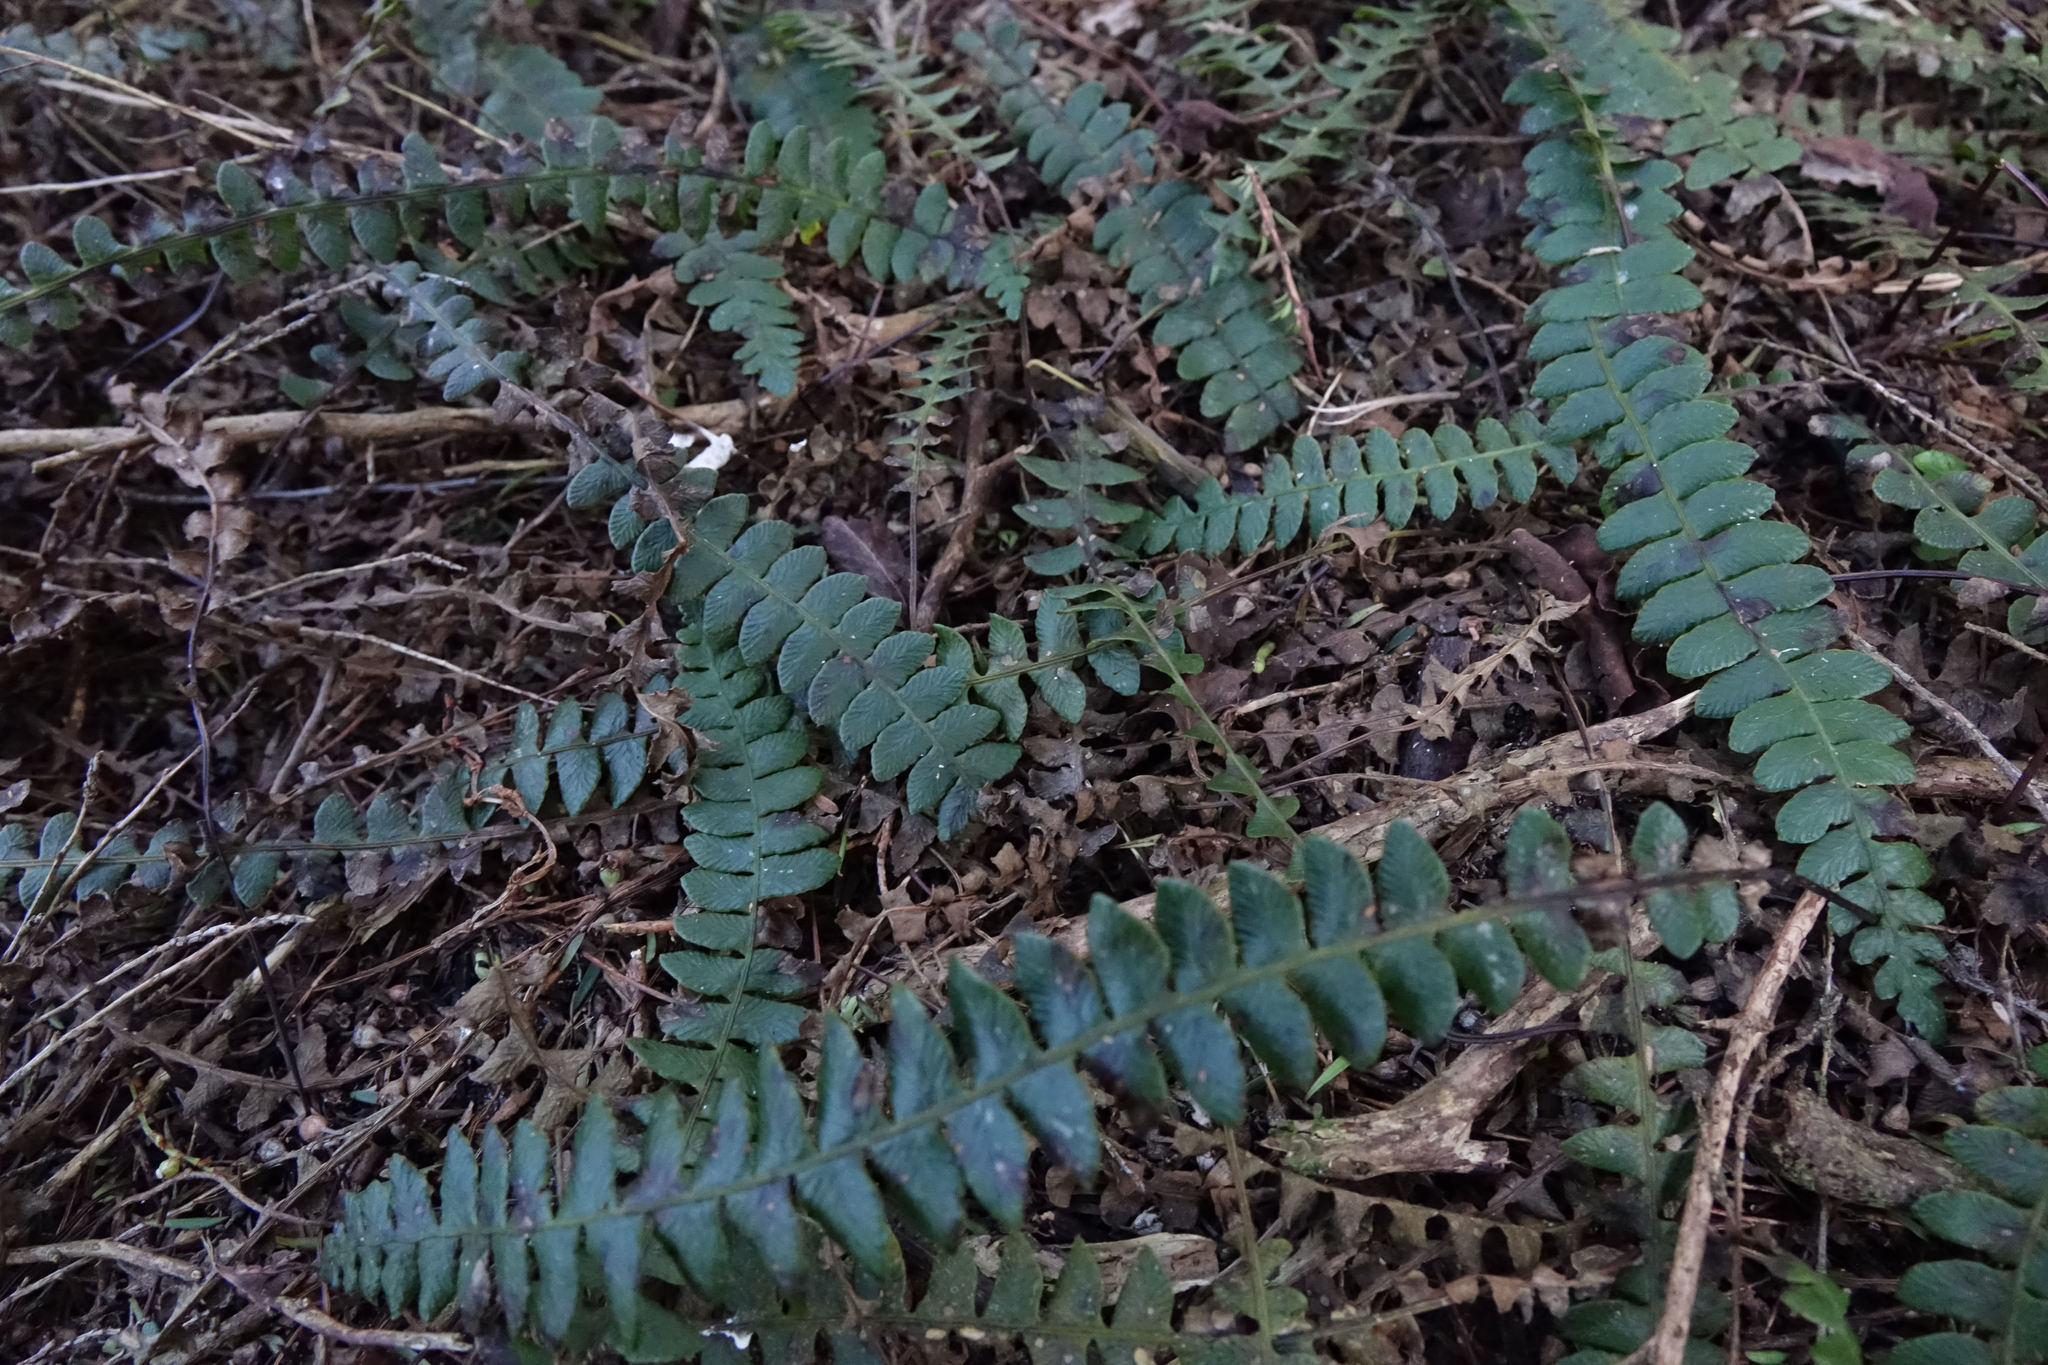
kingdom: Plantae
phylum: Tracheophyta
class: Polypodiopsida
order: Polypodiales
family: Blechnaceae
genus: Austroblechnum
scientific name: Austroblechnum penna-marina
